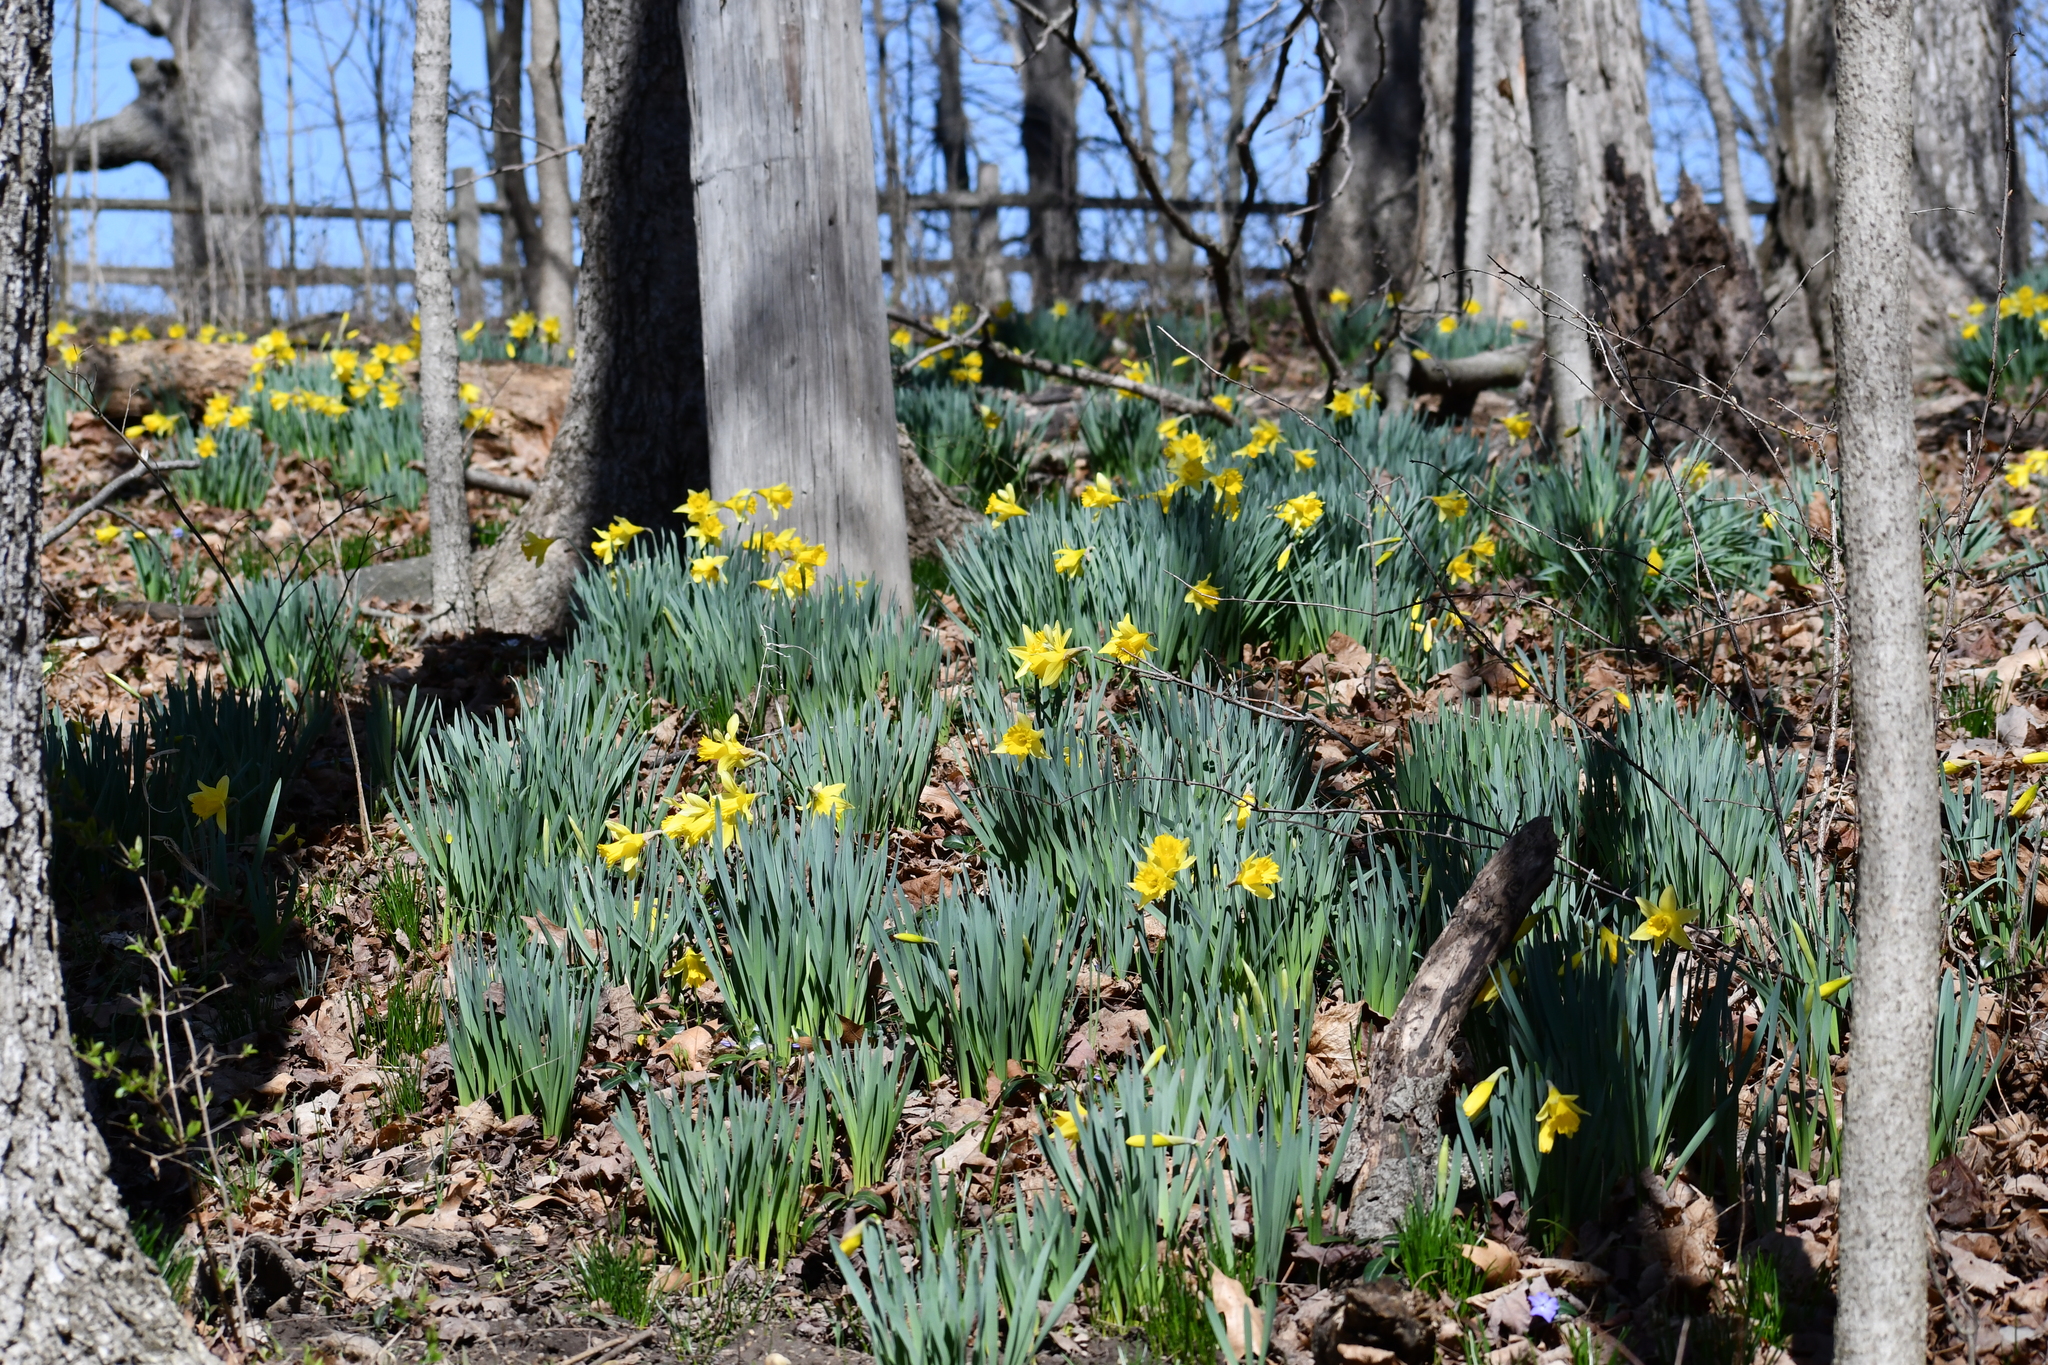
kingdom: Plantae
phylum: Tracheophyta
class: Liliopsida
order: Asparagales
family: Amaryllidaceae
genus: Narcissus
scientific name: Narcissus pseudonarcissus
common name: Daffodil
